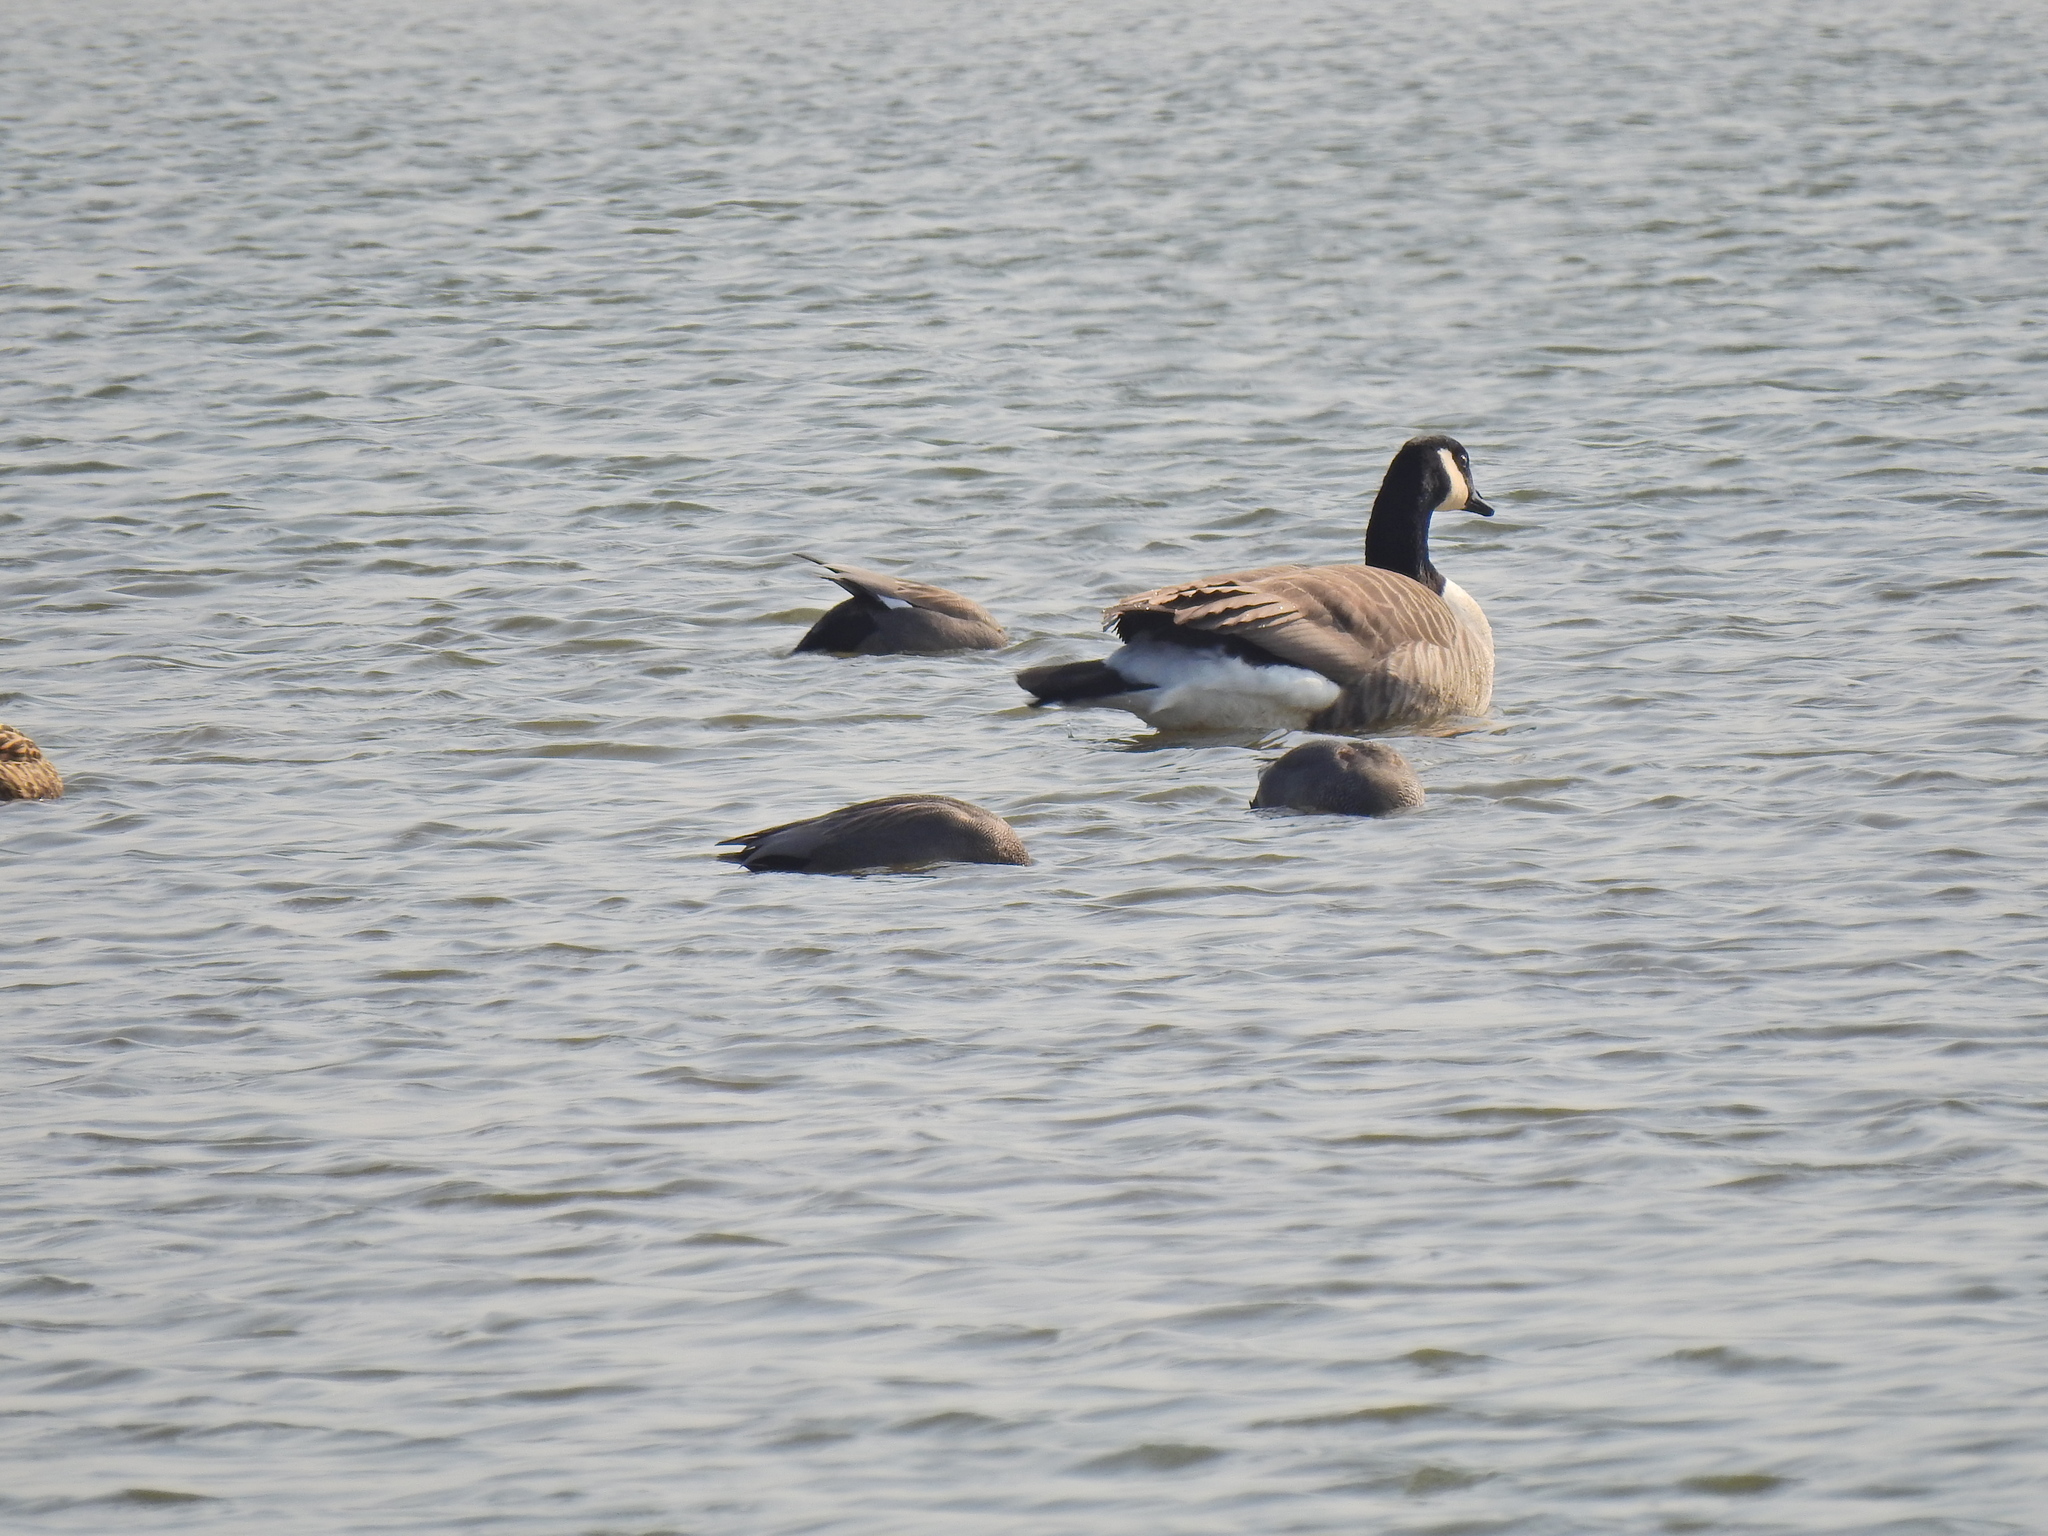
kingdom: Animalia
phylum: Chordata
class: Aves
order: Anseriformes
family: Anatidae
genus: Branta
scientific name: Branta canadensis
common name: Canada goose
